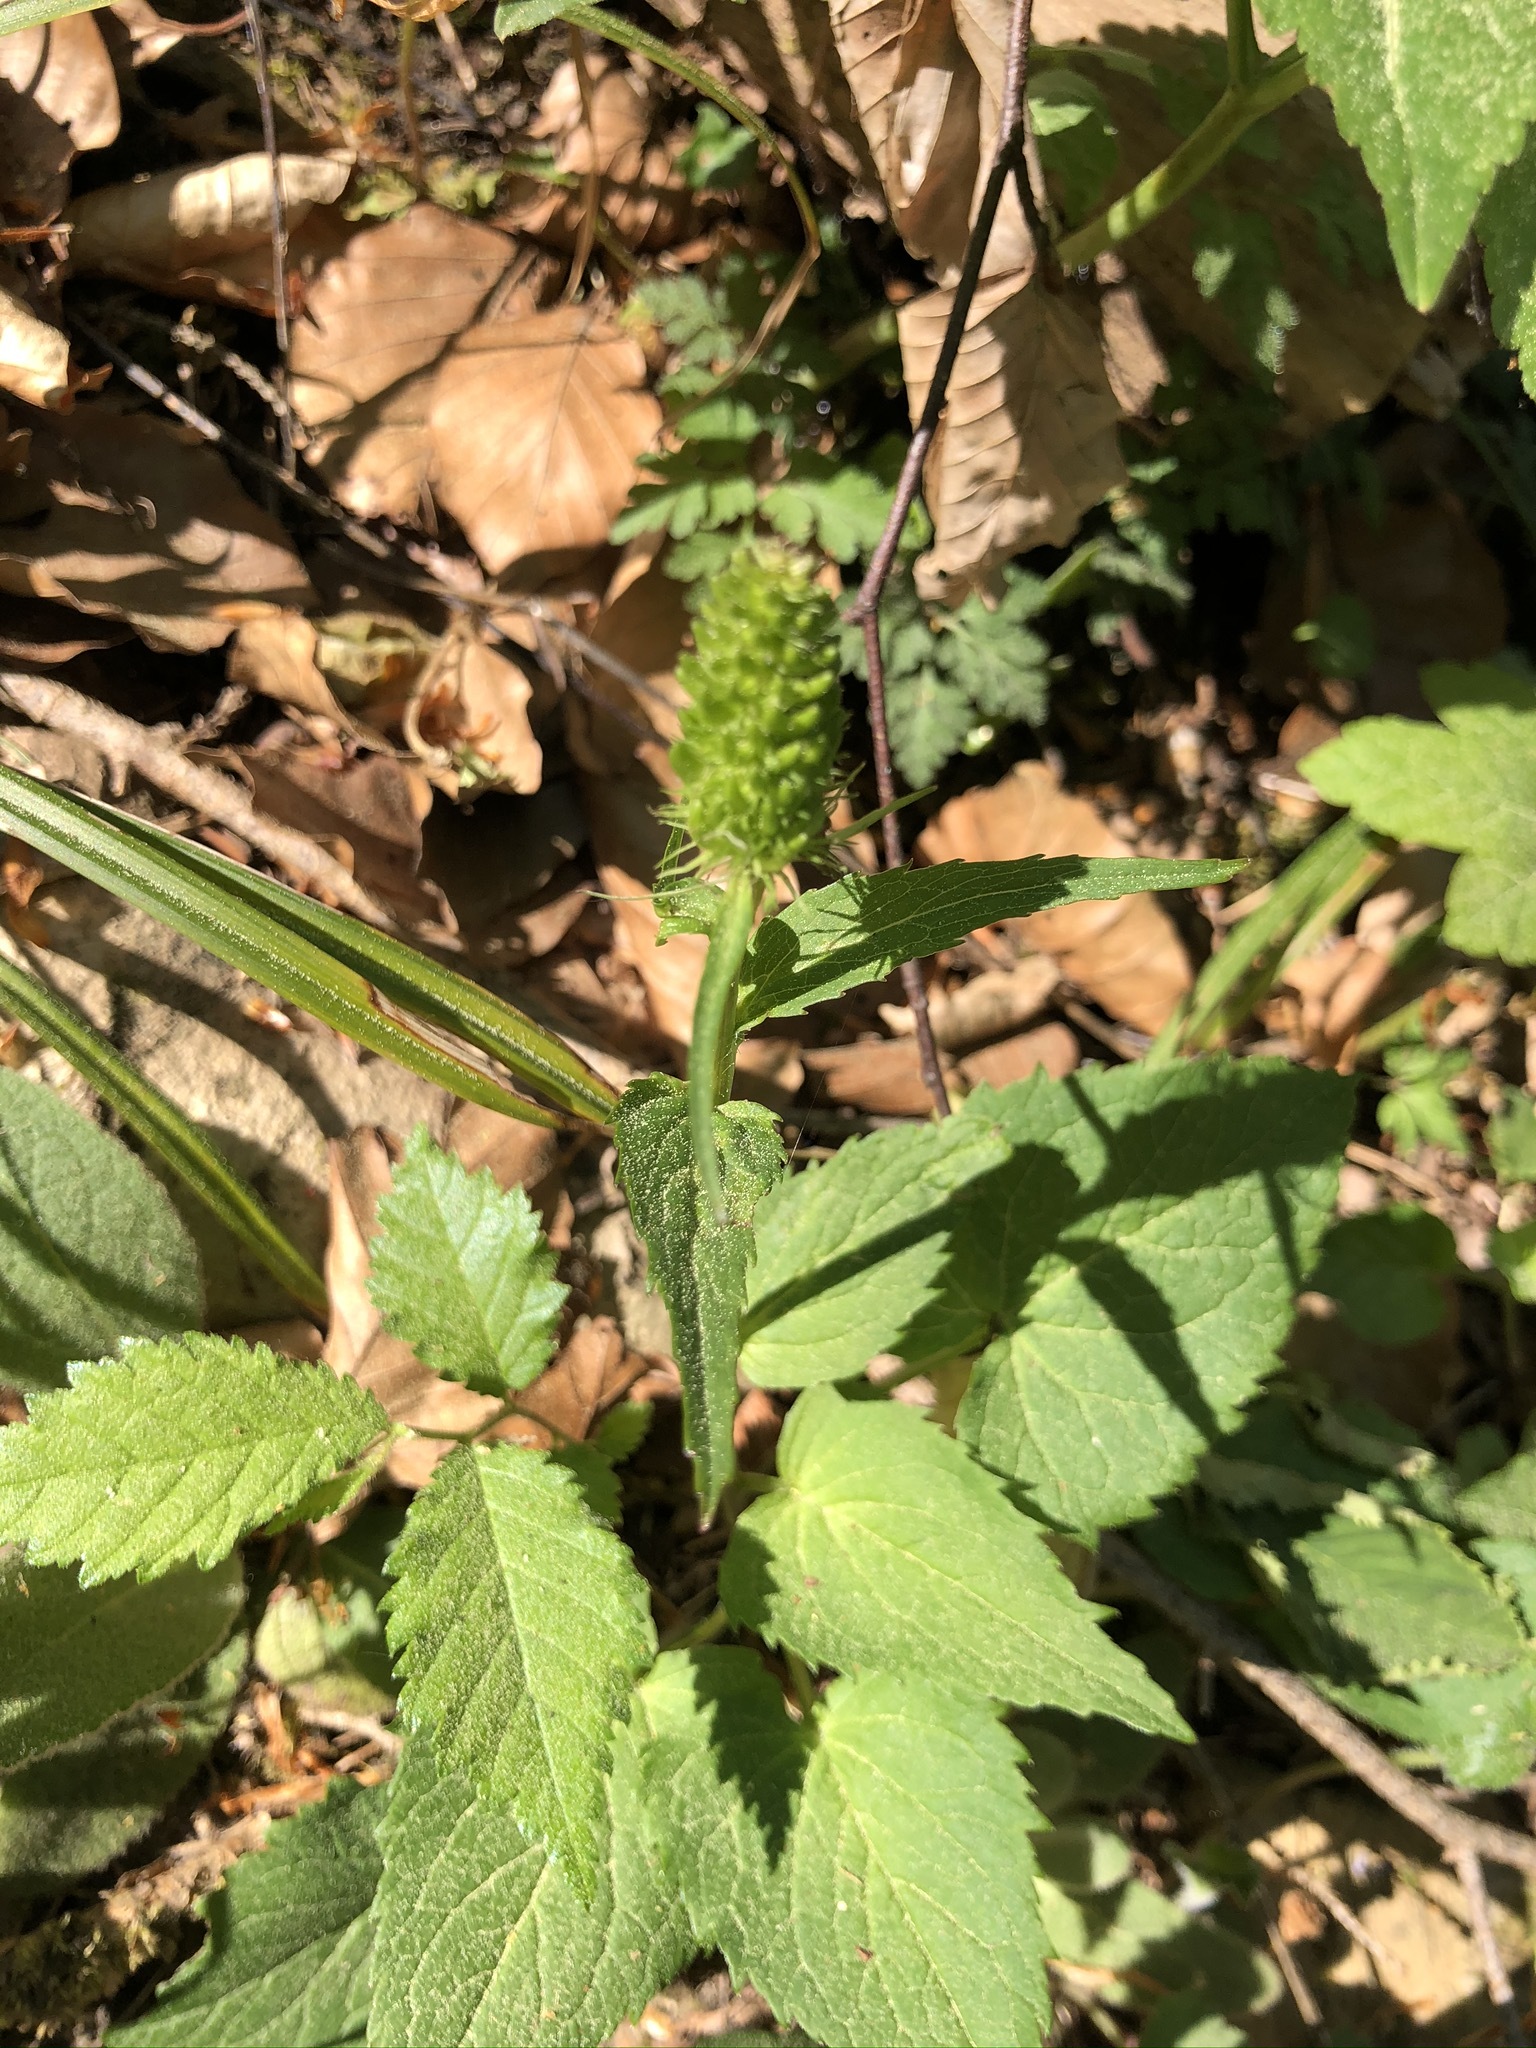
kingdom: Plantae
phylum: Tracheophyta
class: Magnoliopsida
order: Asterales
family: Campanulaceae
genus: Phyteuma
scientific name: Phyteuma spicatum
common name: Spiked rampion
